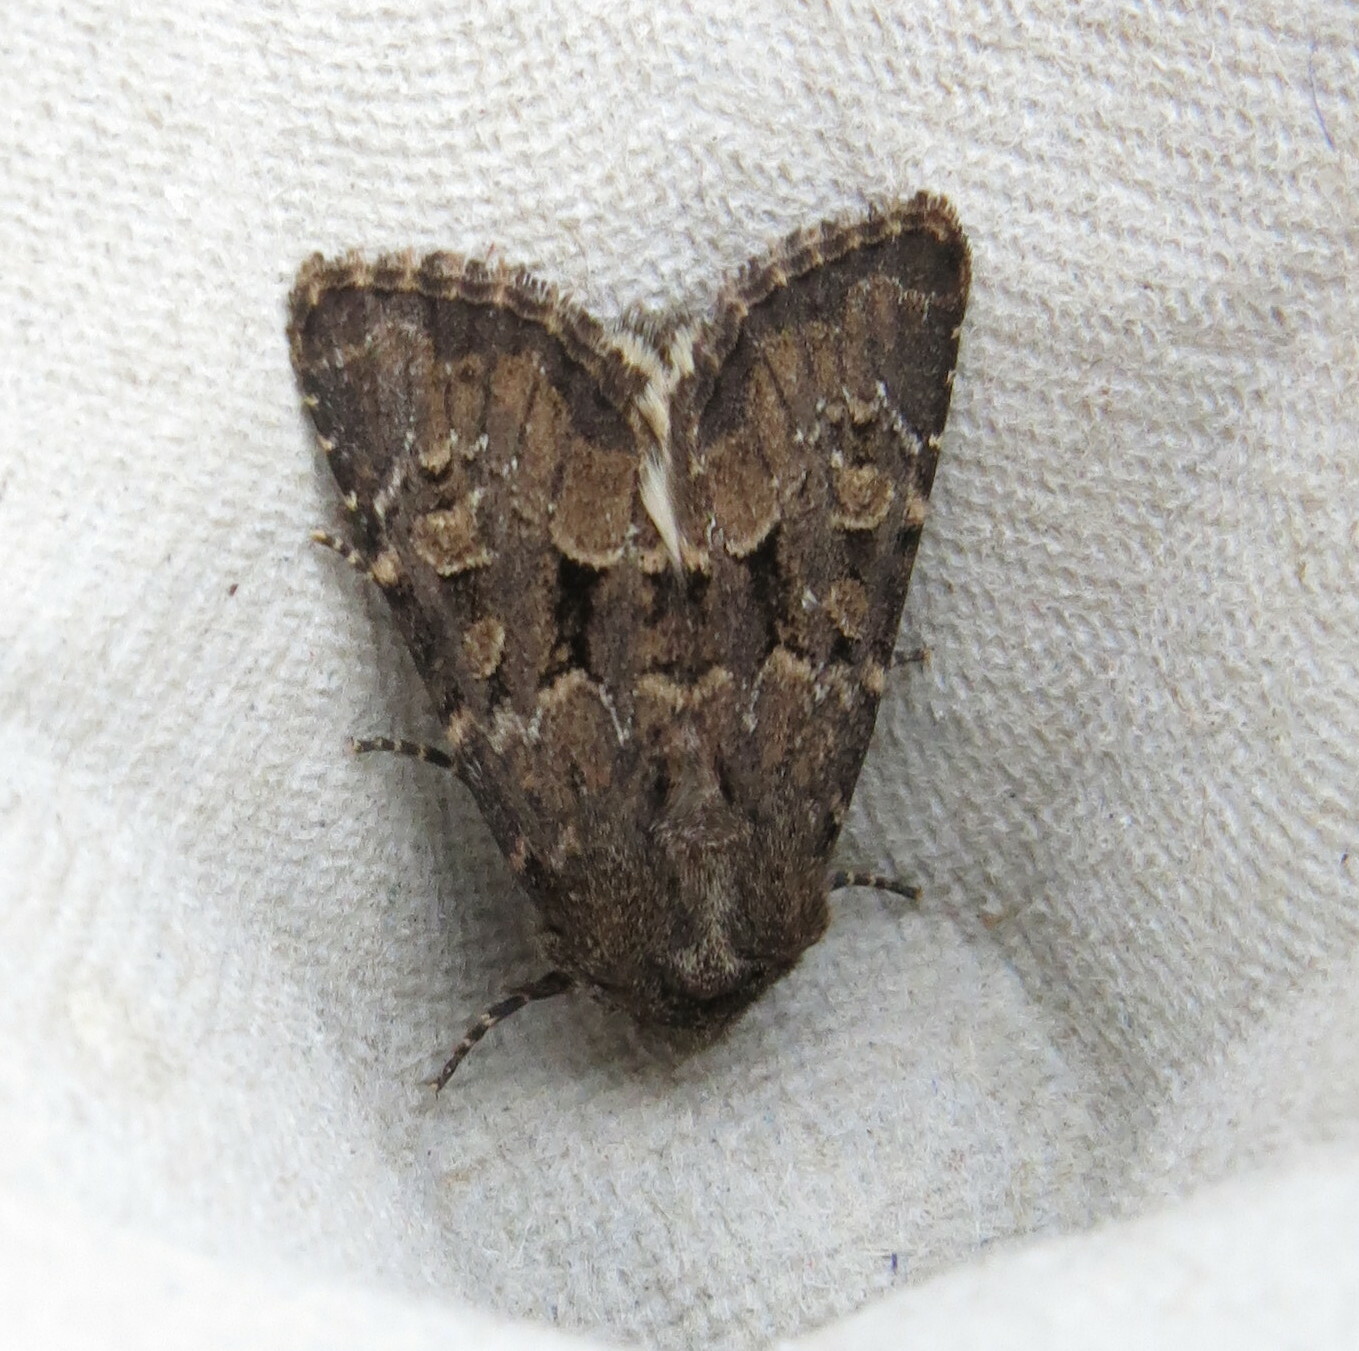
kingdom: Animalia
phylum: Arthropoda
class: Insecta
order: Lepidoptera
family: Noctuidae
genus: Luperina
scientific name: Luperina testacea
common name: Flounced rustic
